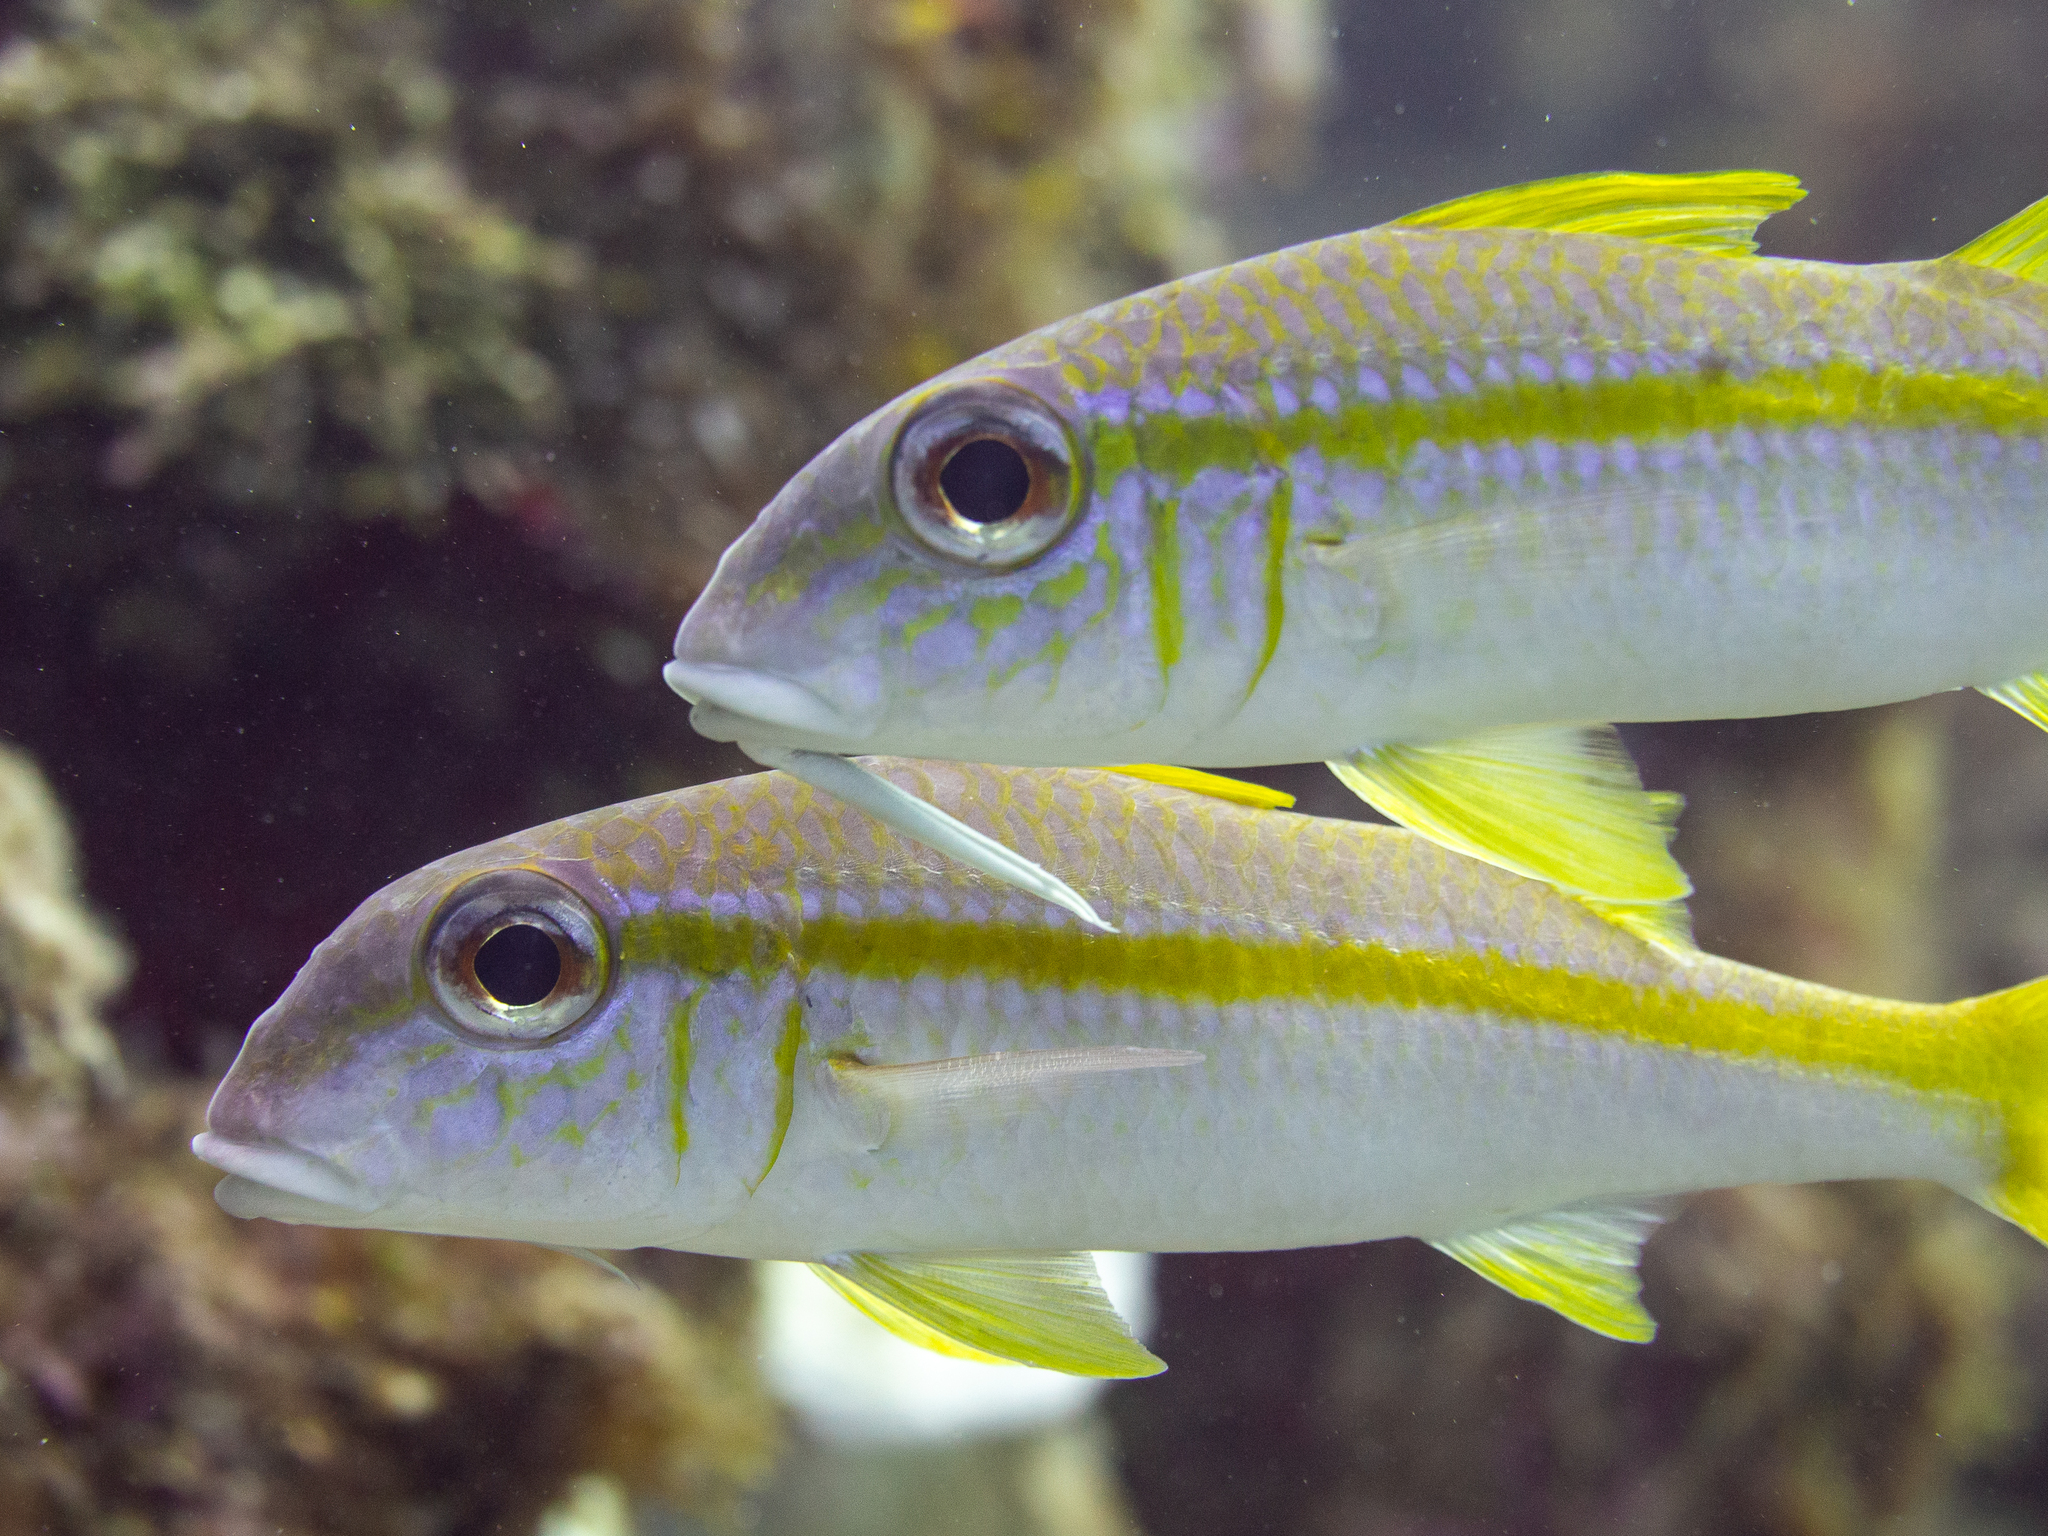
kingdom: Animalia
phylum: Chordata
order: Perciformes
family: Mullidae
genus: Mulloidichthys
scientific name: Mulloidichthys martinicus
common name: Yellow goatfish
